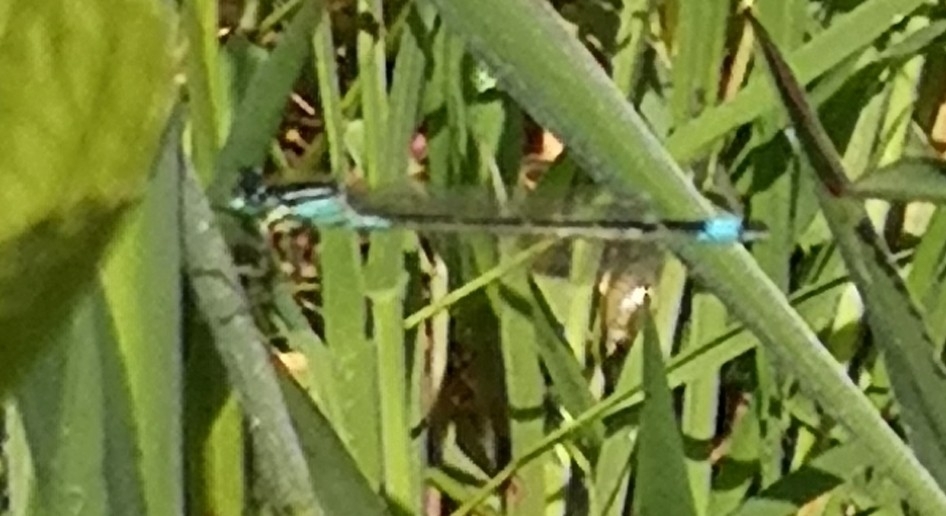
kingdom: Animalia
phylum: Arthropoda
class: Insecta
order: Odonata
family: Coenagrionidae
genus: Ischnura
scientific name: Ischnura elegans
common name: Blue-tailed damselfly
